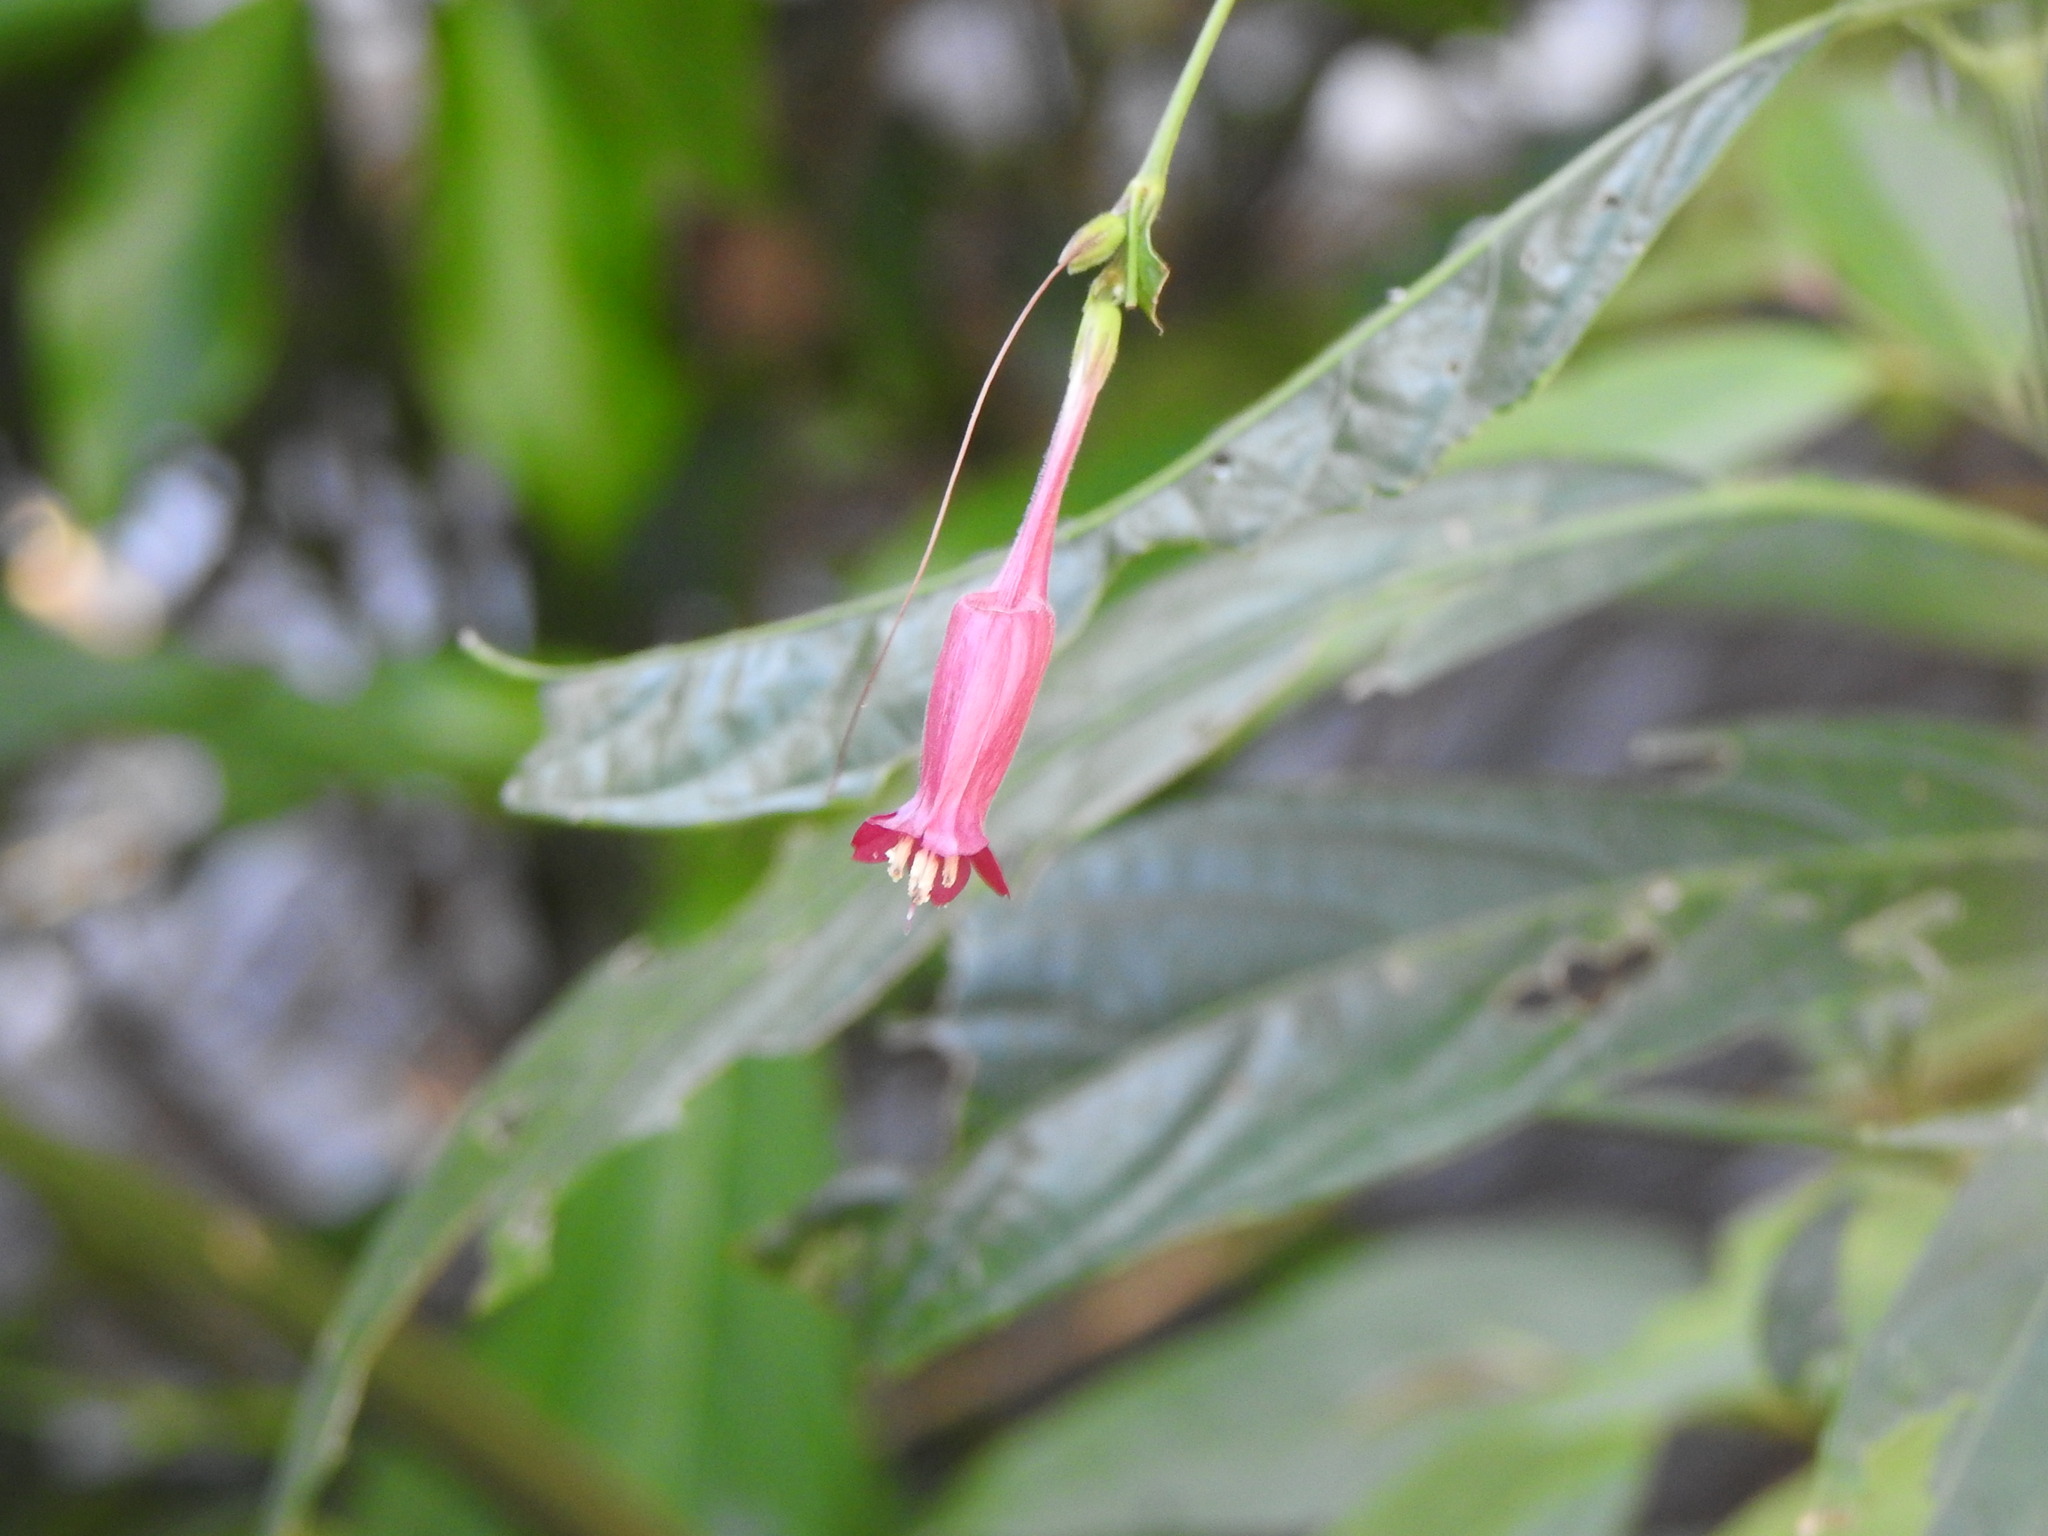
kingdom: Plantae
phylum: Tracheophyta
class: Magnoliopsida
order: Lamiales
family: Acanthaceae
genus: Ruellia
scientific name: Ruellia angustiflora
